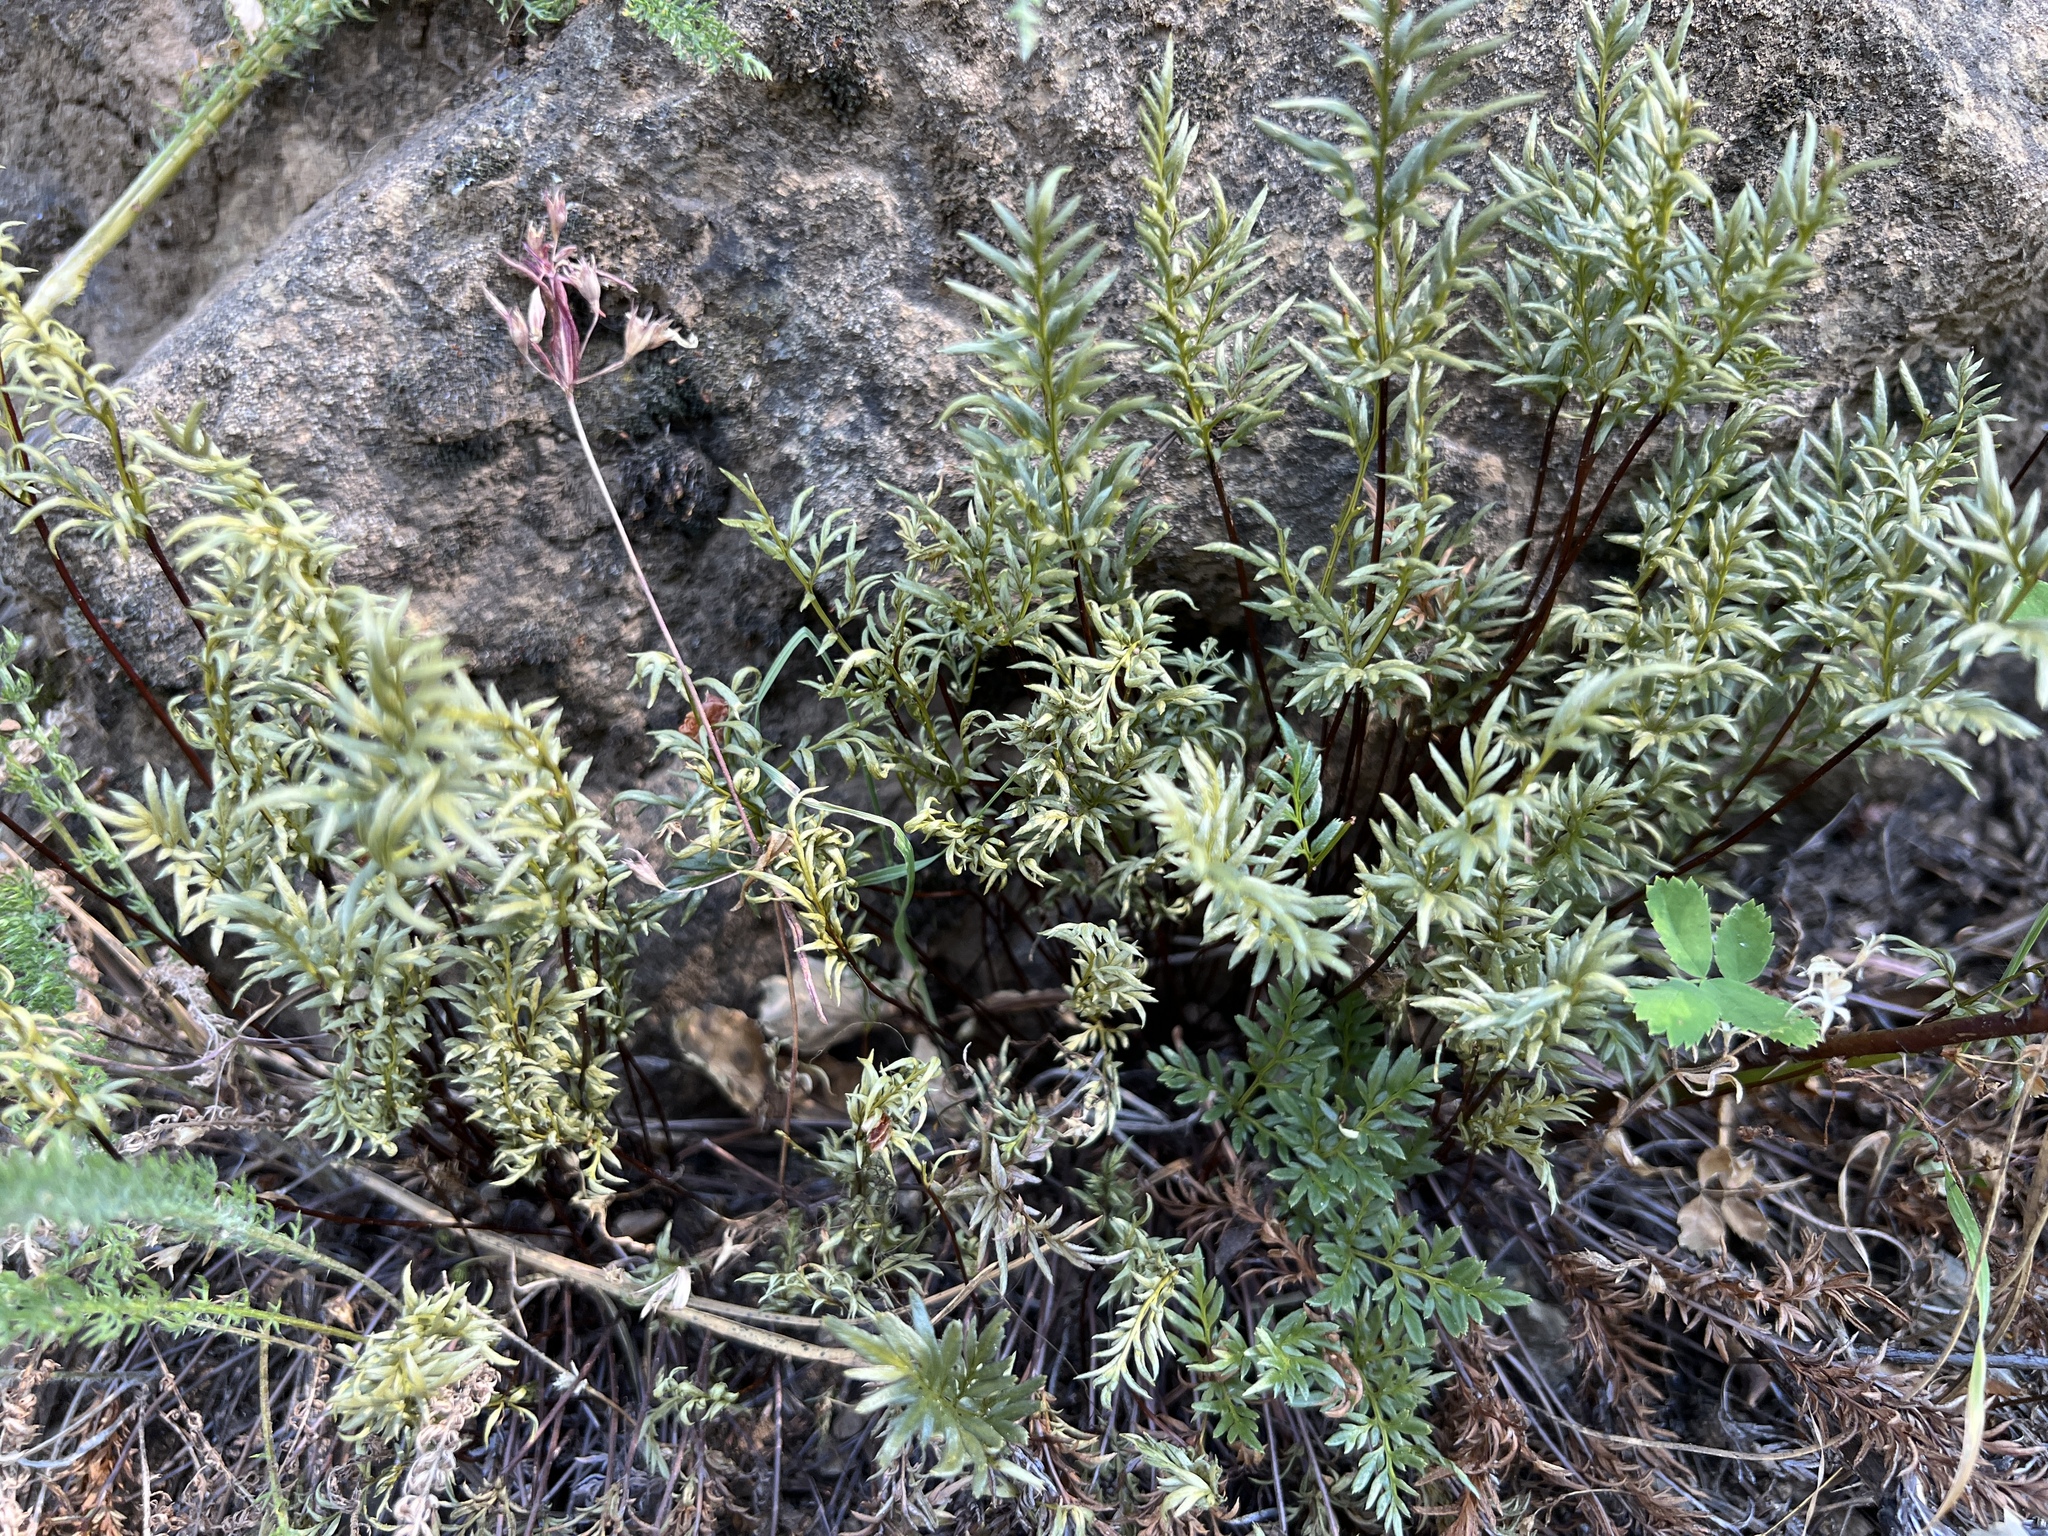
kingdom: Plantae
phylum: Tracheophyta
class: Polypodiopsida
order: Polypodiales
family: Pteridaceae
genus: Aspidotis
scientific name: Aspidotis densa
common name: Indian's dream
